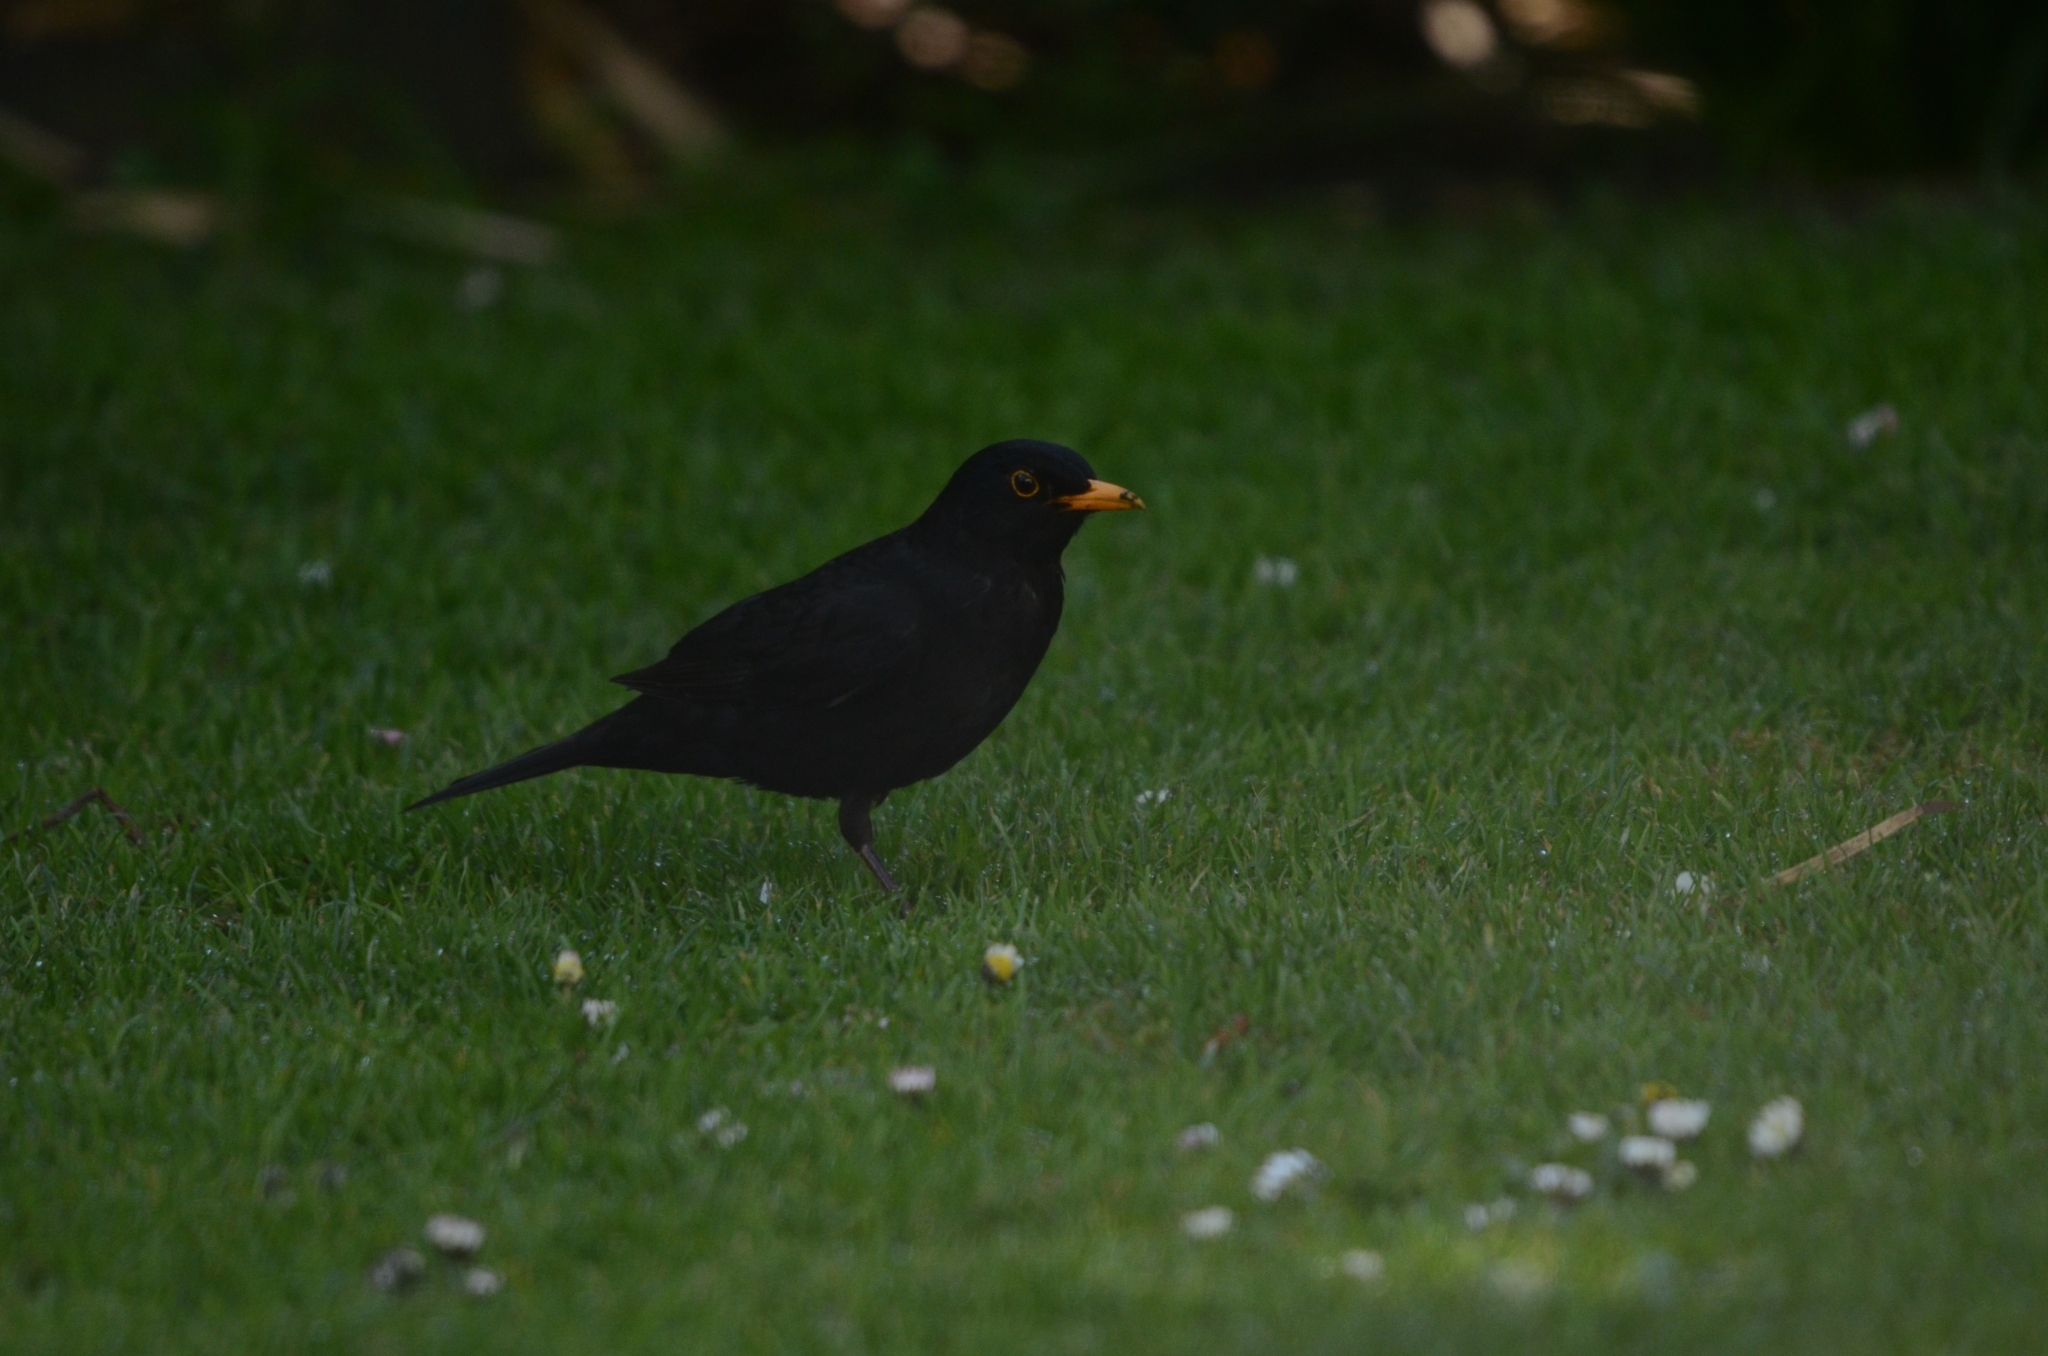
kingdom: Animalia
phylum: Chordata
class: Aves
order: Passeriformes
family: Turdidae
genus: Turdus
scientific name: Turdus merula
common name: Common blackbird
